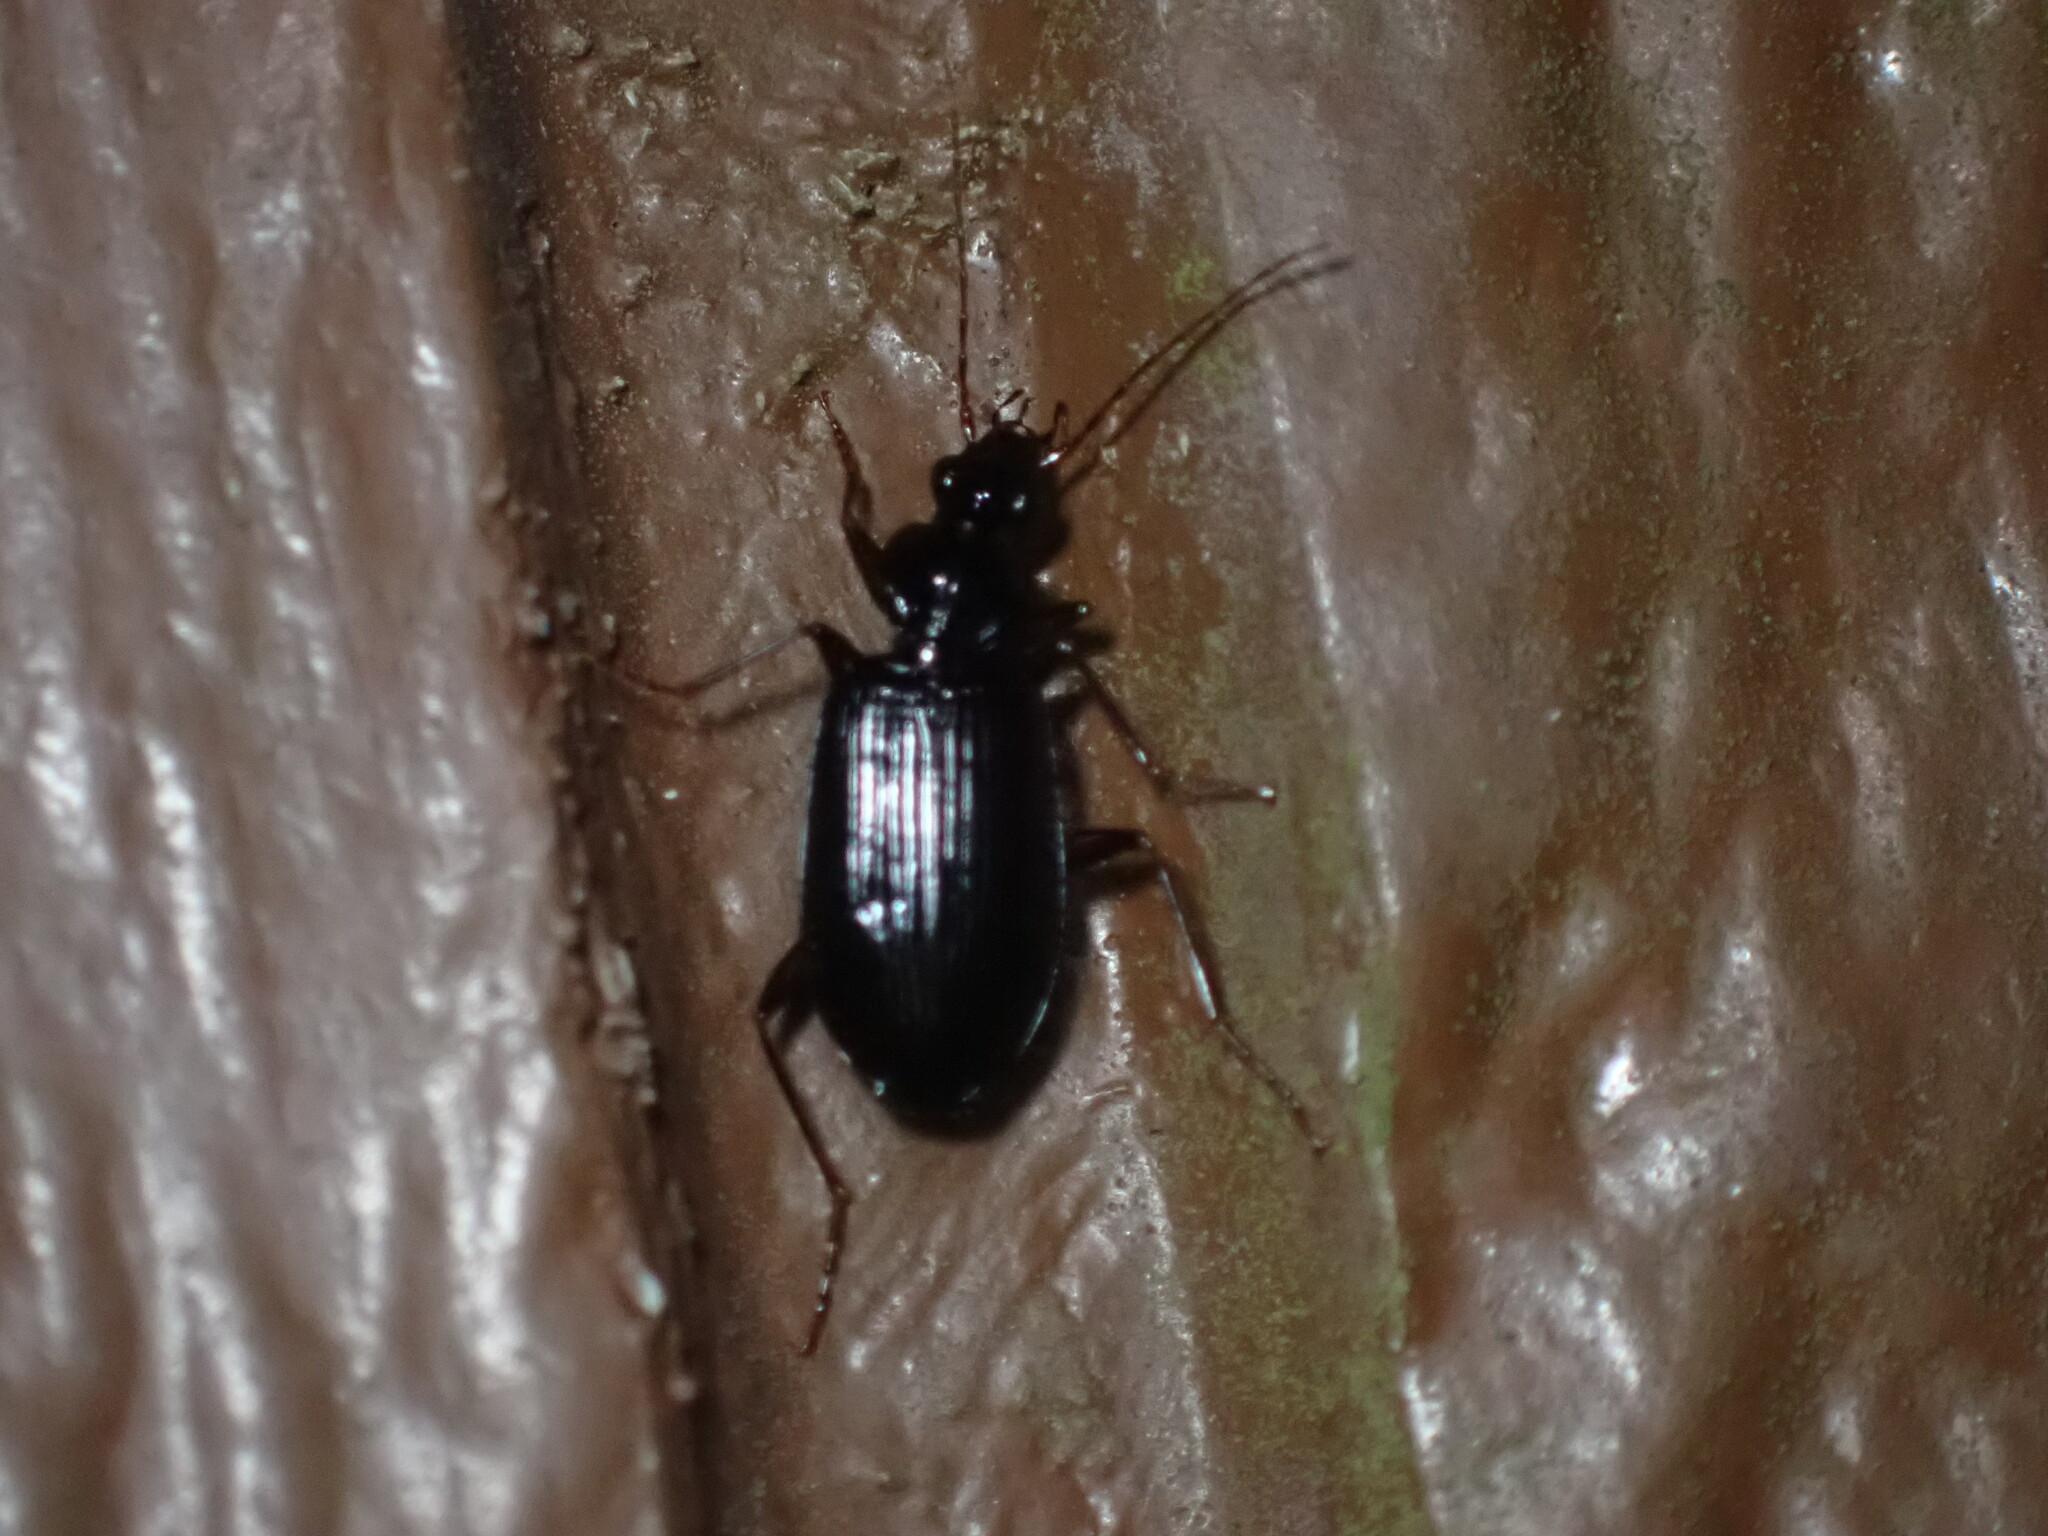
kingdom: Animalia
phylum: Arthropoda
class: Insecta
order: Coleoptera
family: Carabidae
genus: Platynus
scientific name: Platynus cincticollis
